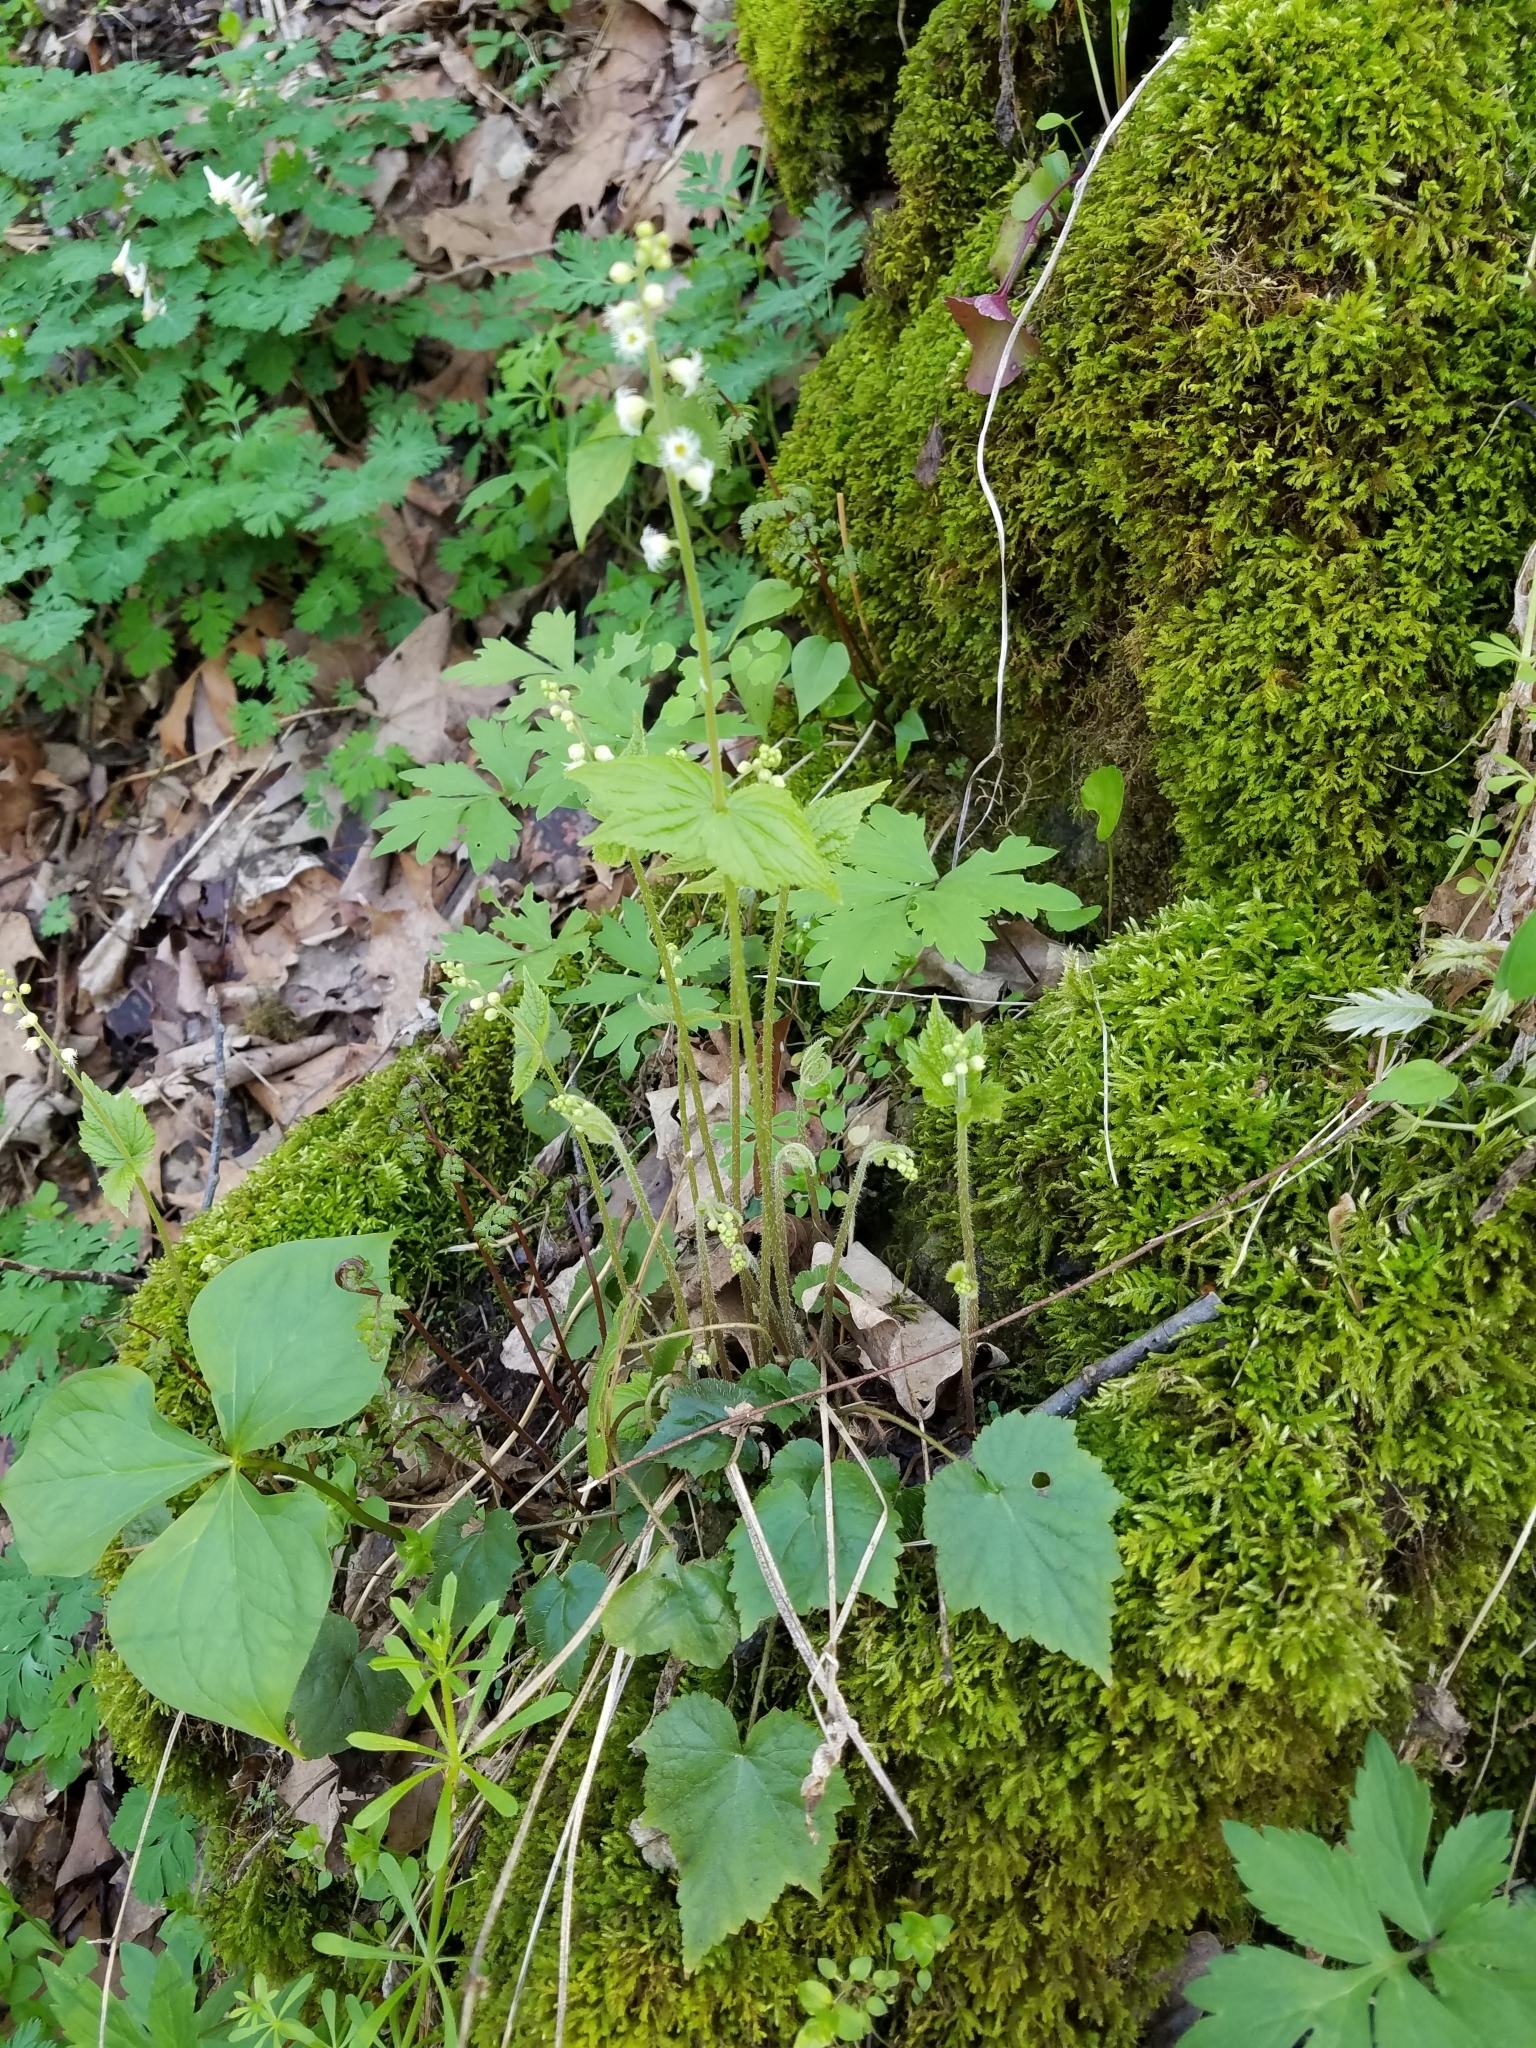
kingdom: Plantae
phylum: Tracheophyta
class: Magnoliopsida
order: Saxifragales
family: Saxifragaceae
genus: Mitella
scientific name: Mitella diphylla
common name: Coolwort
